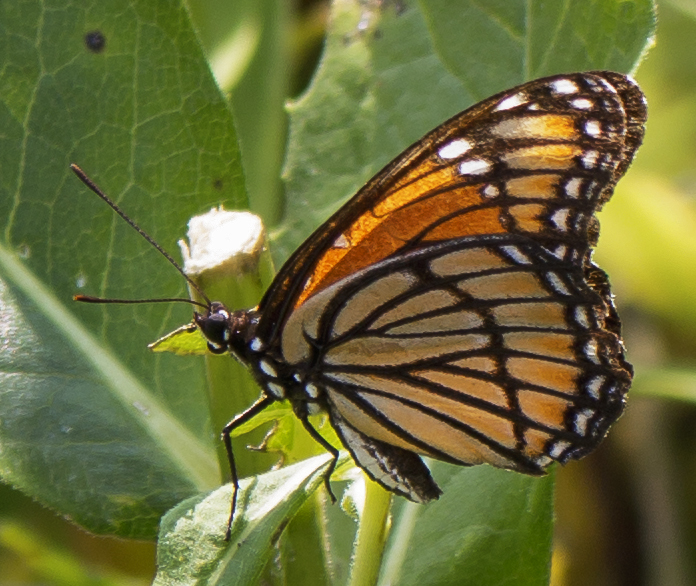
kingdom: Animalia
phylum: Arthropoda
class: Insecta
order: Lepidoptera
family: Nymphalidae
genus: Limenitis
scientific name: Limenitis archippus
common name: Viceroy
